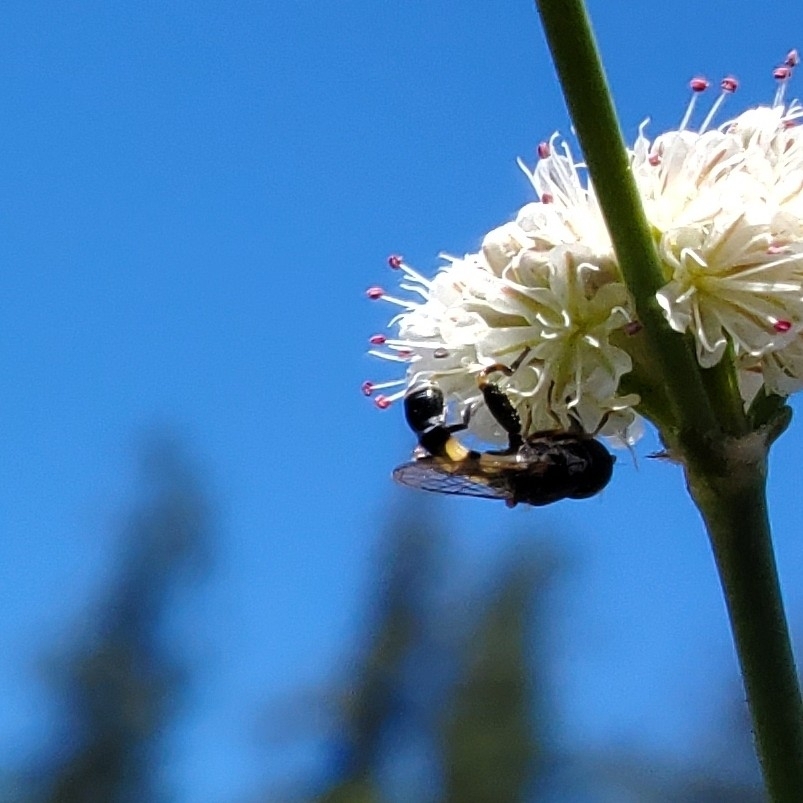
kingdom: Animalia
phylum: Arthropoda
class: Insecta
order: Diptera
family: Syrphidae
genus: Syritta
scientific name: Syritta pipiens
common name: Hover fly
